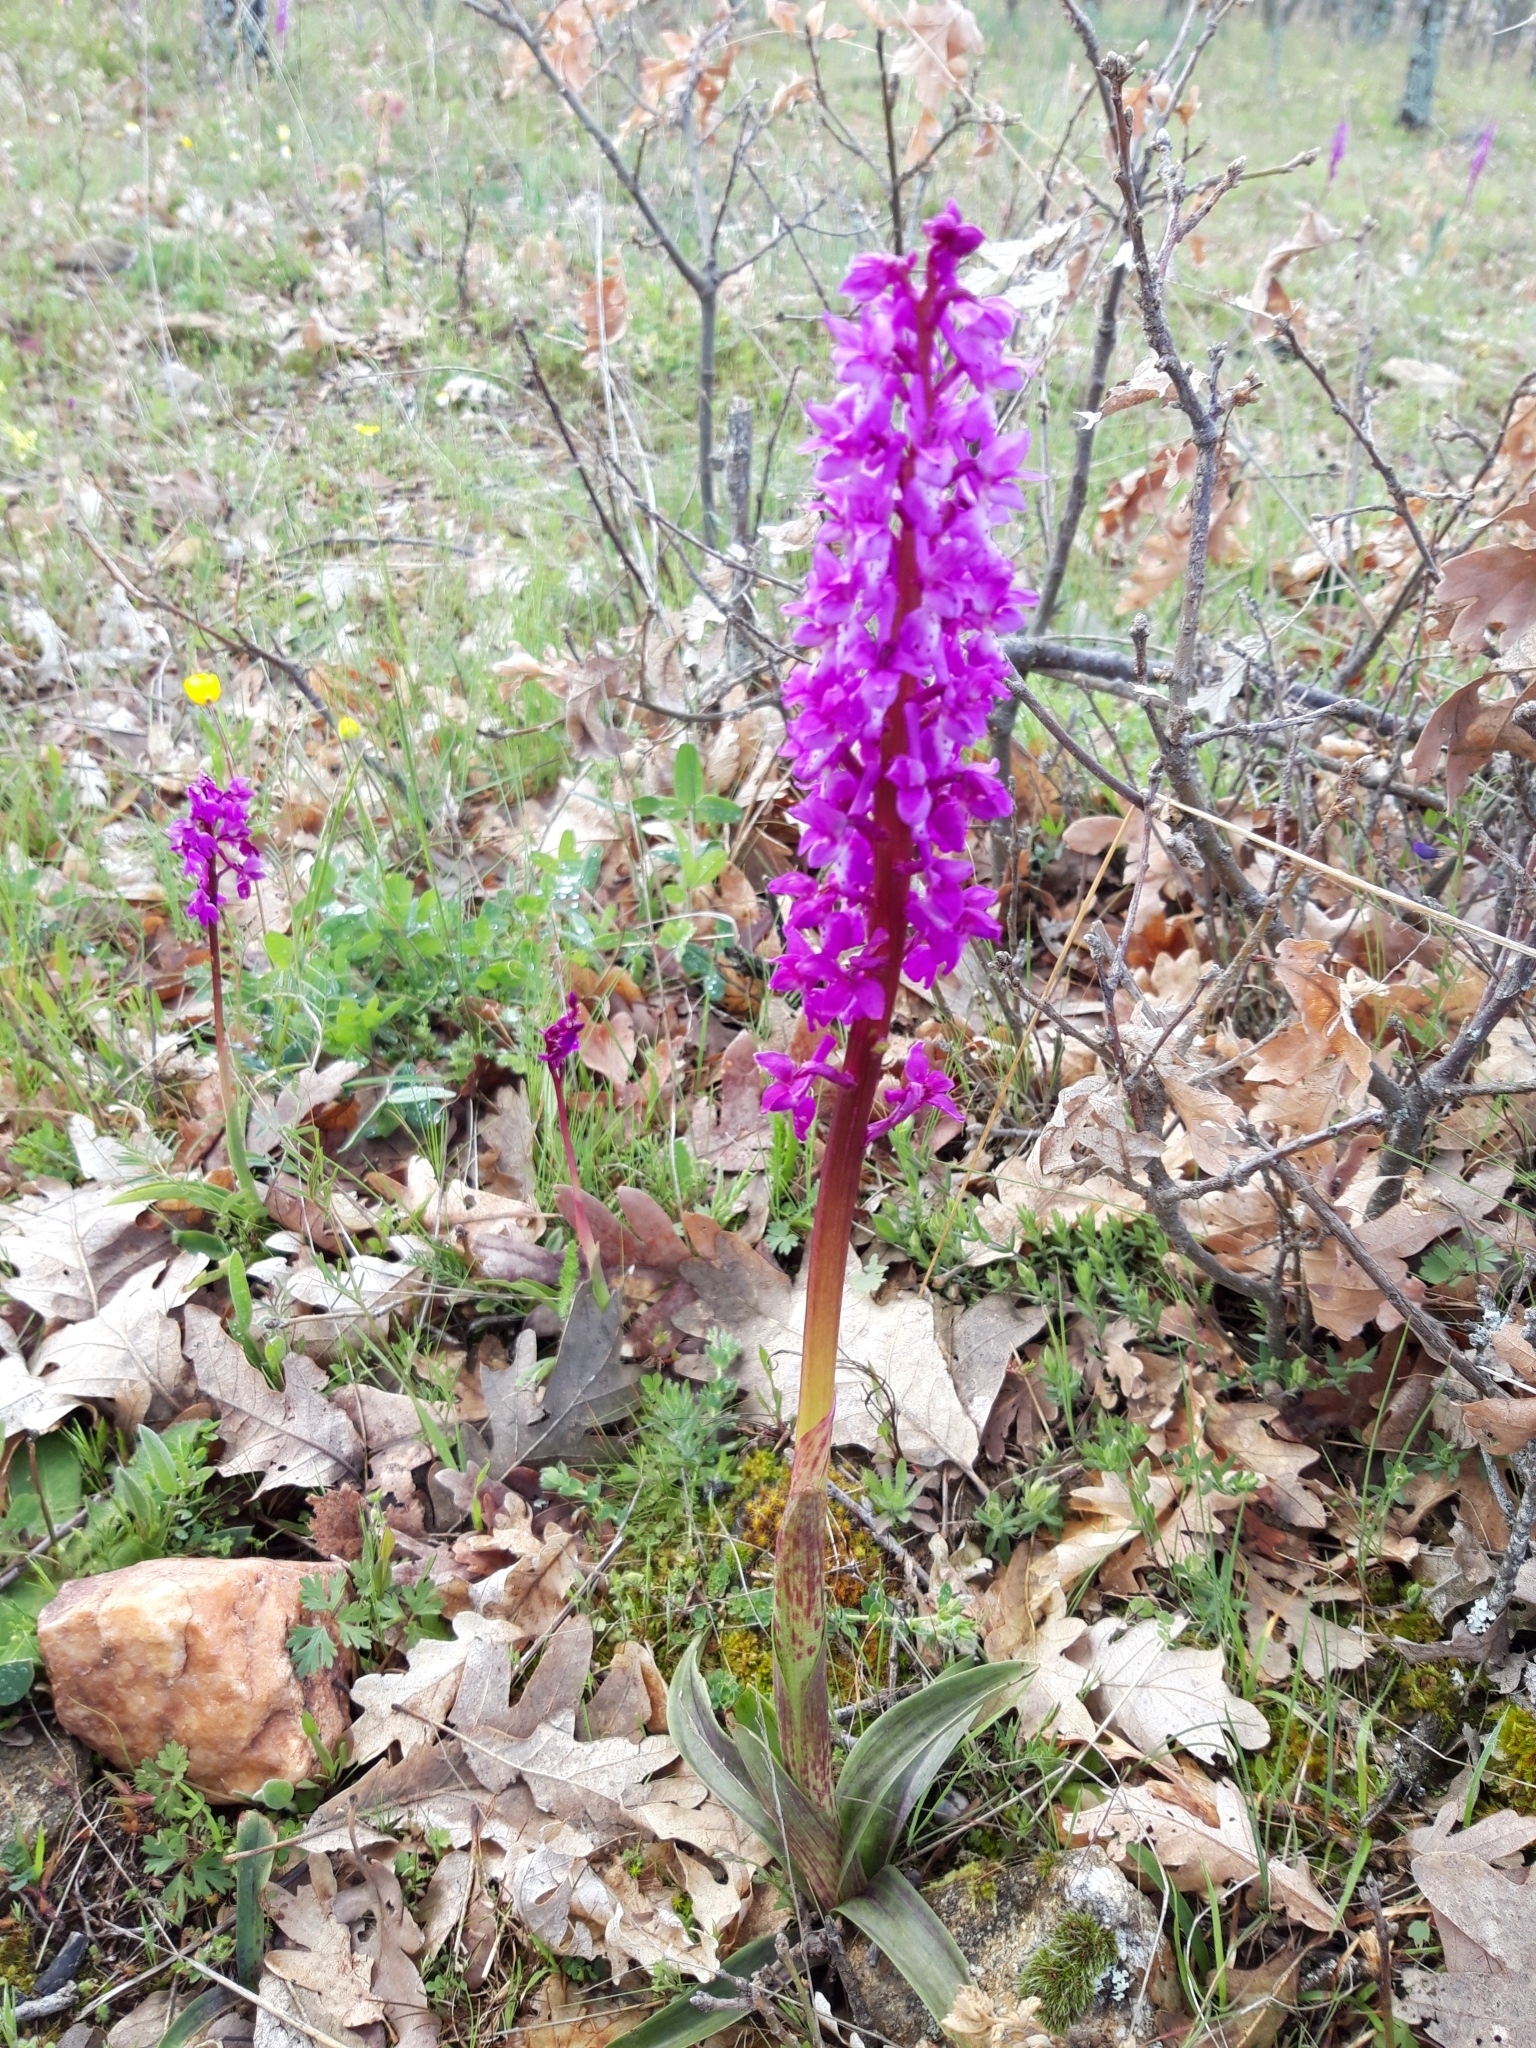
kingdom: Plantae
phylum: Tracheophyta
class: Liliopsida
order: Asparagales
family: Orchidaceae
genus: Orchis
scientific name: Orchis mascula
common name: Early-purple orchid
